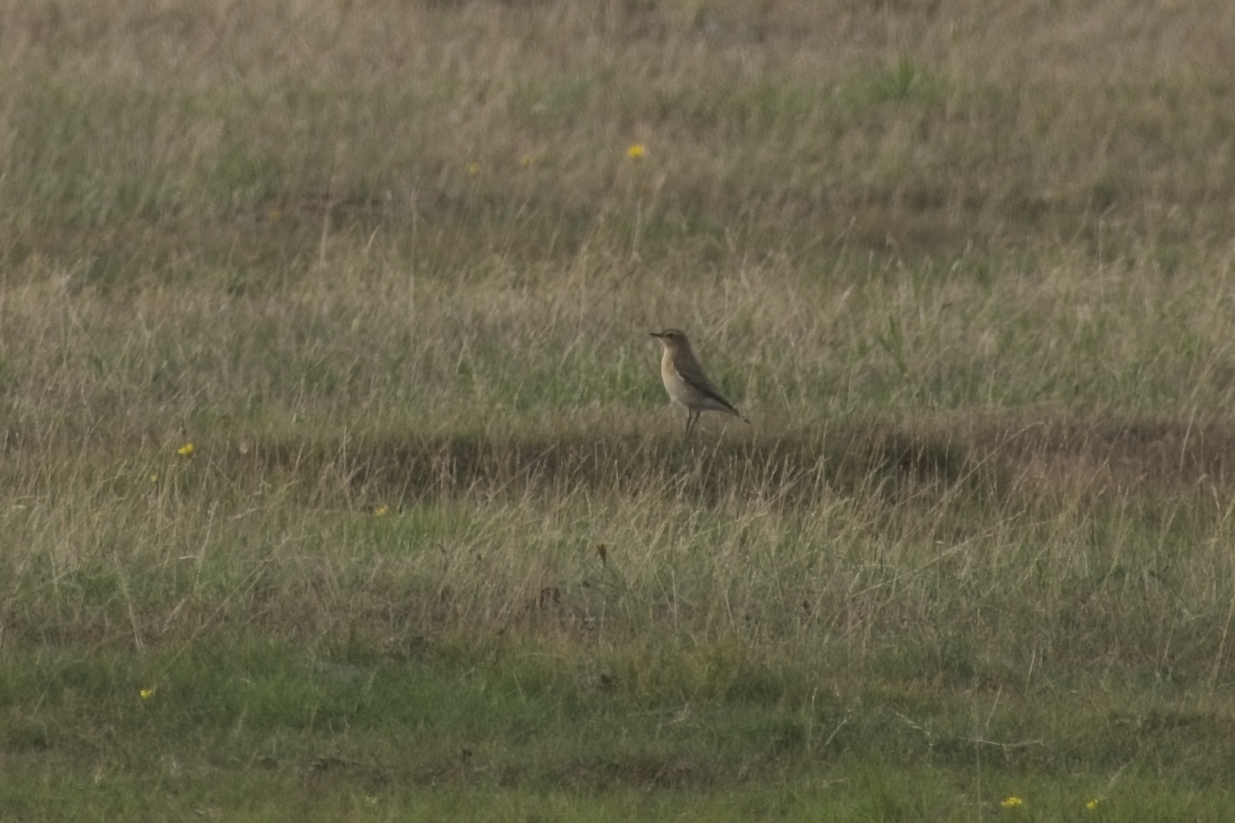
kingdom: Animalia
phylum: Chordata
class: Aves
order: Passeriformes
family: Muscicapidae
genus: Oenanthe
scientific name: Oenanthe oenanthe
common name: Northern wheatear
